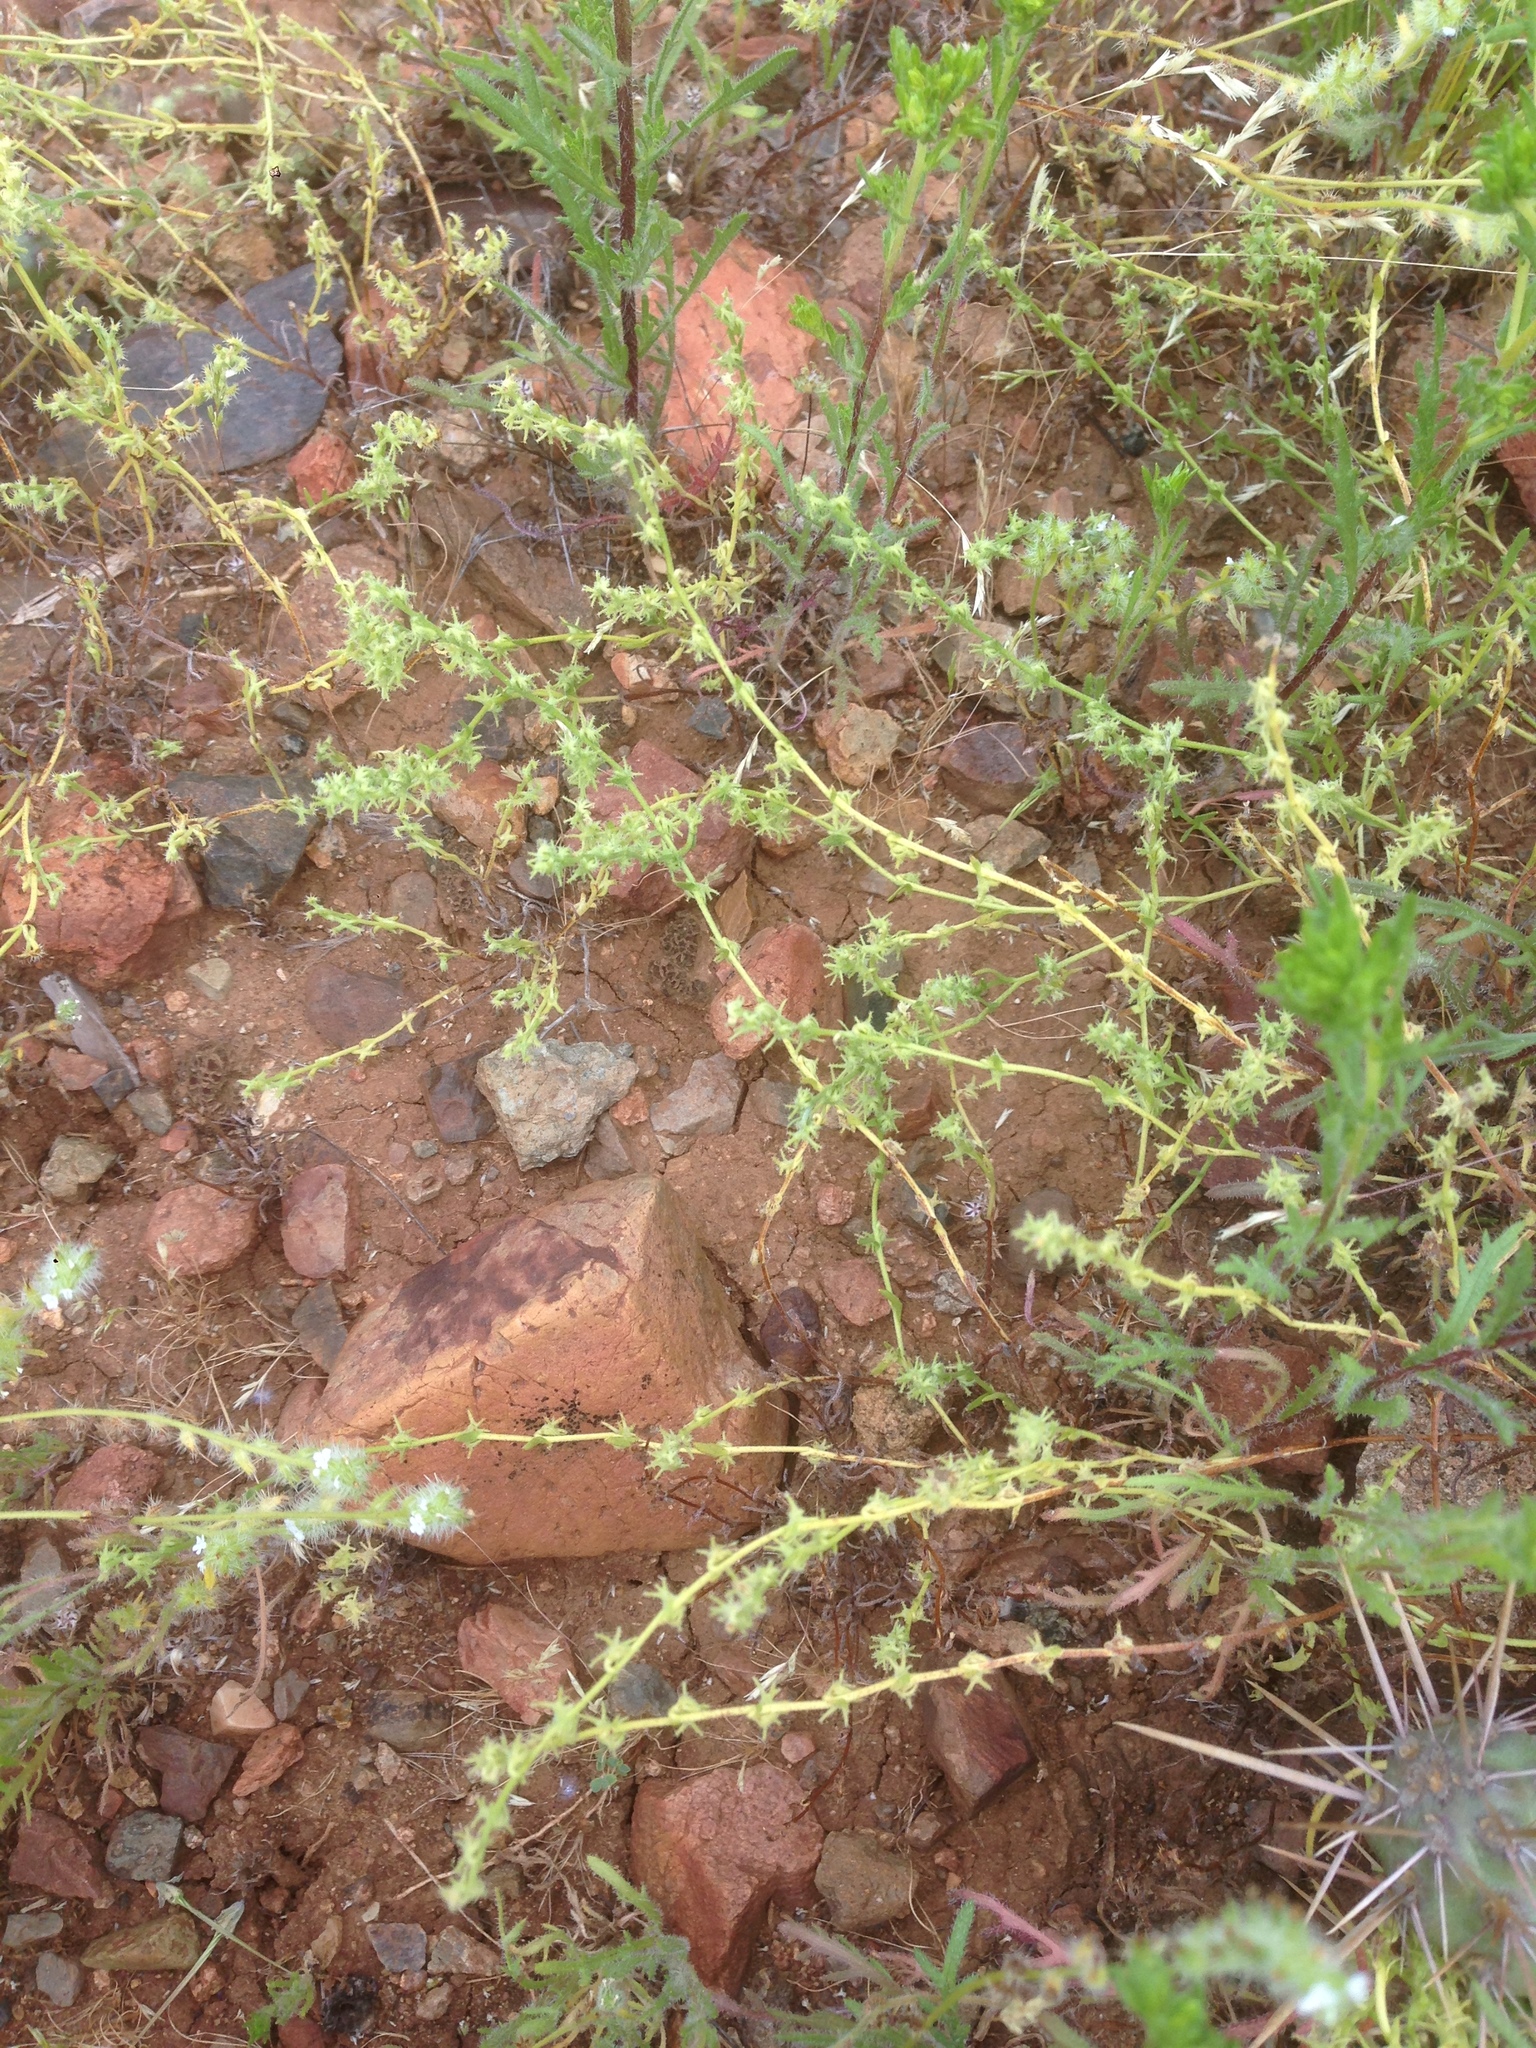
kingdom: Plantae
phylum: Tracheophyta
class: Magnoliopsida
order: Boraginales
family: Boraginaceae
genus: Harpagonella
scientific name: Harpagonella palmeri
